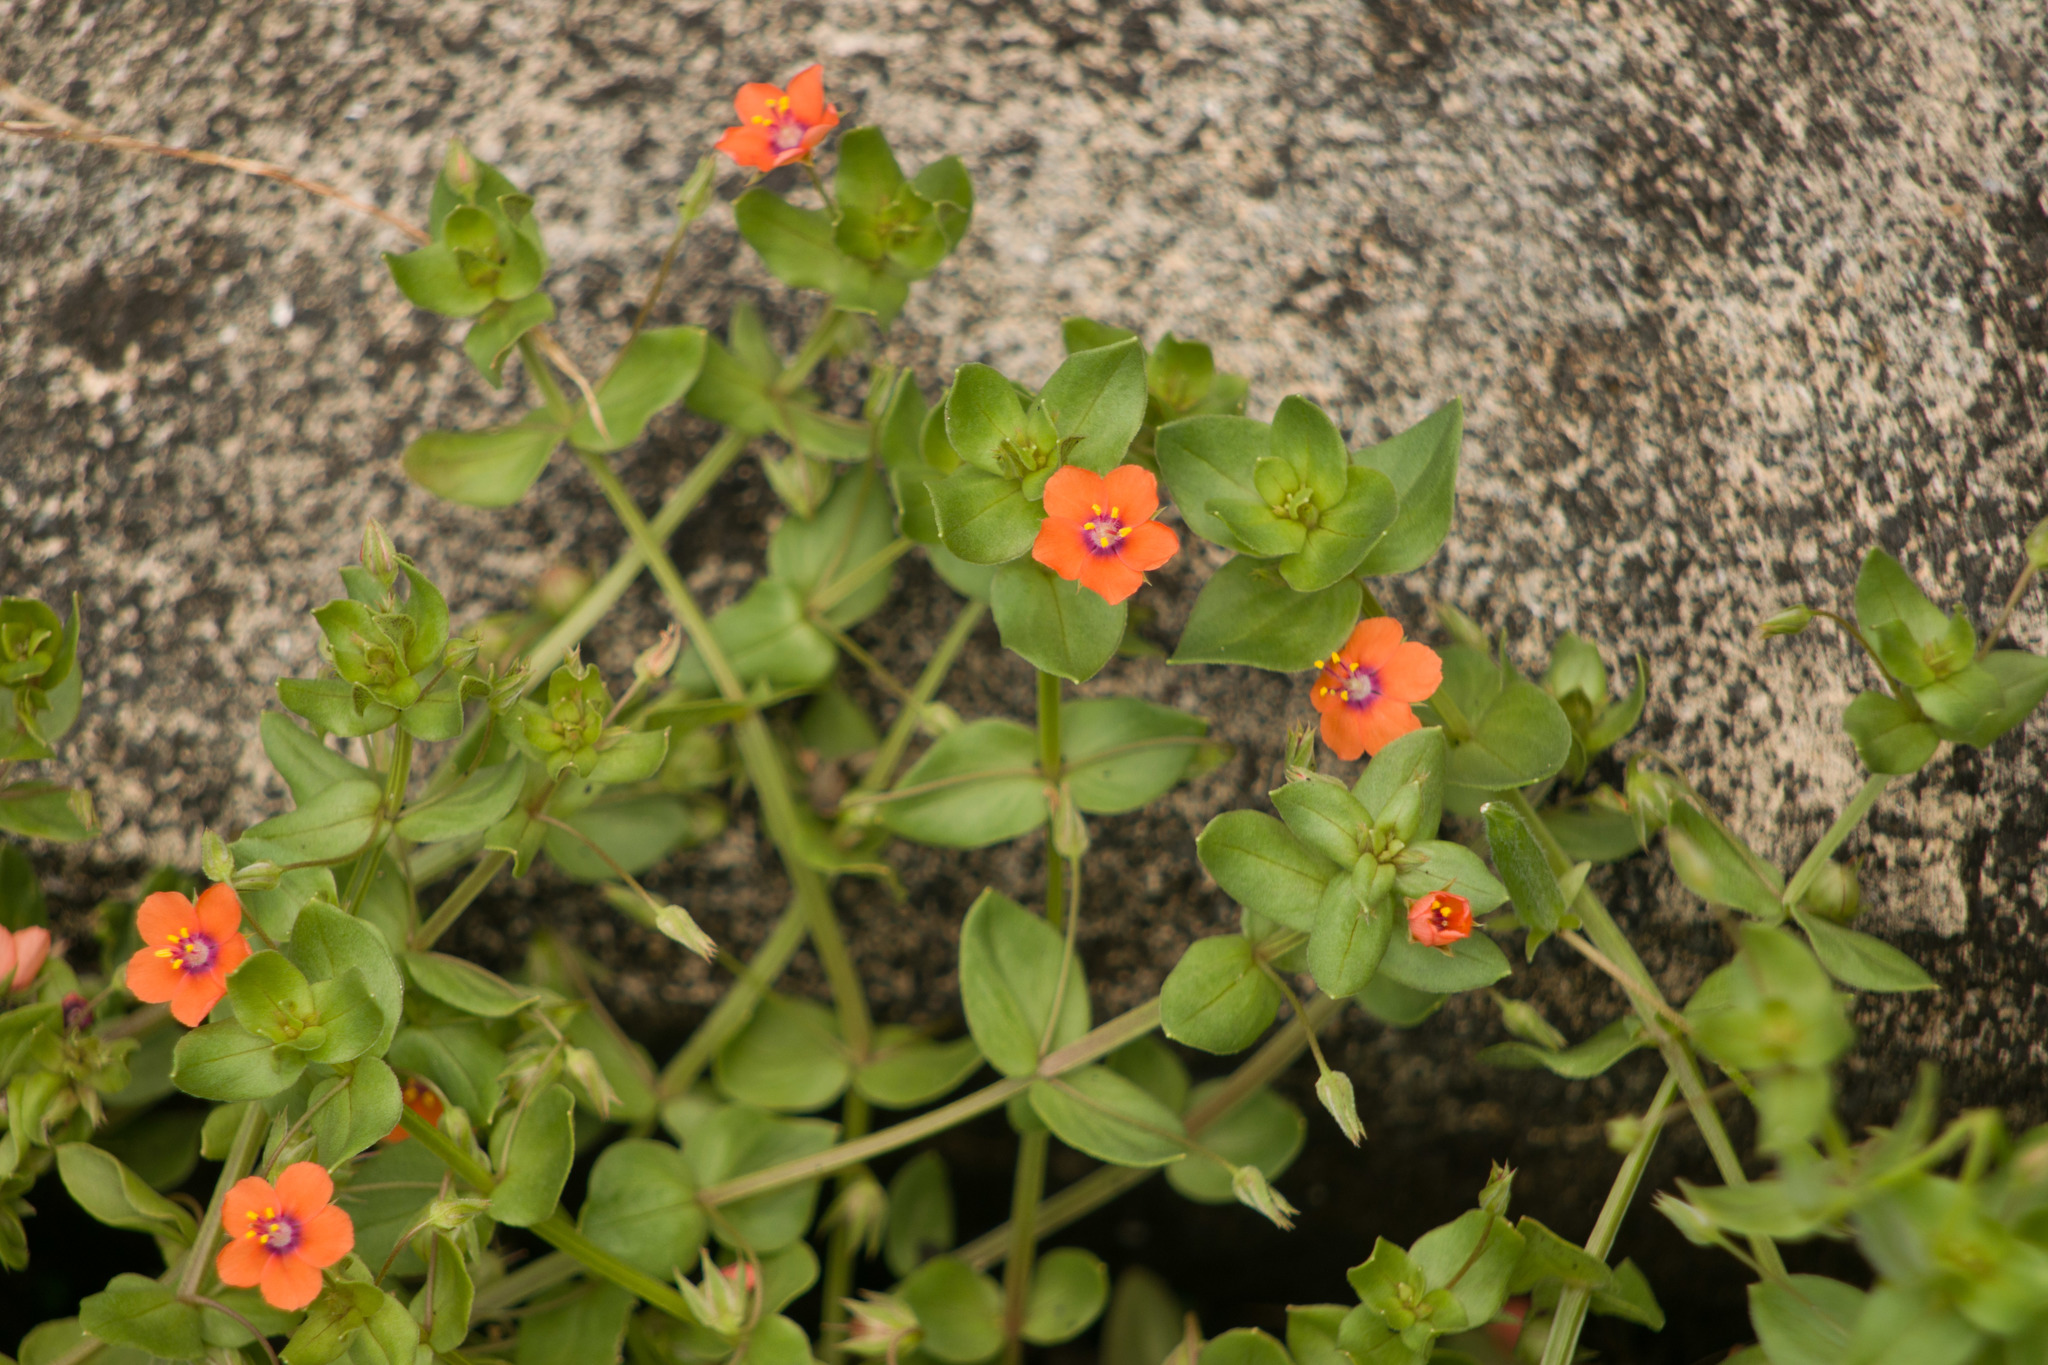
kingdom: Plantae
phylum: Tracheophyta
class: Magnoliopsida
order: Ericales
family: Primulaceae
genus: Lysimachia
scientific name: Lysimachia arvensis
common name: Scarlet pimpernel
